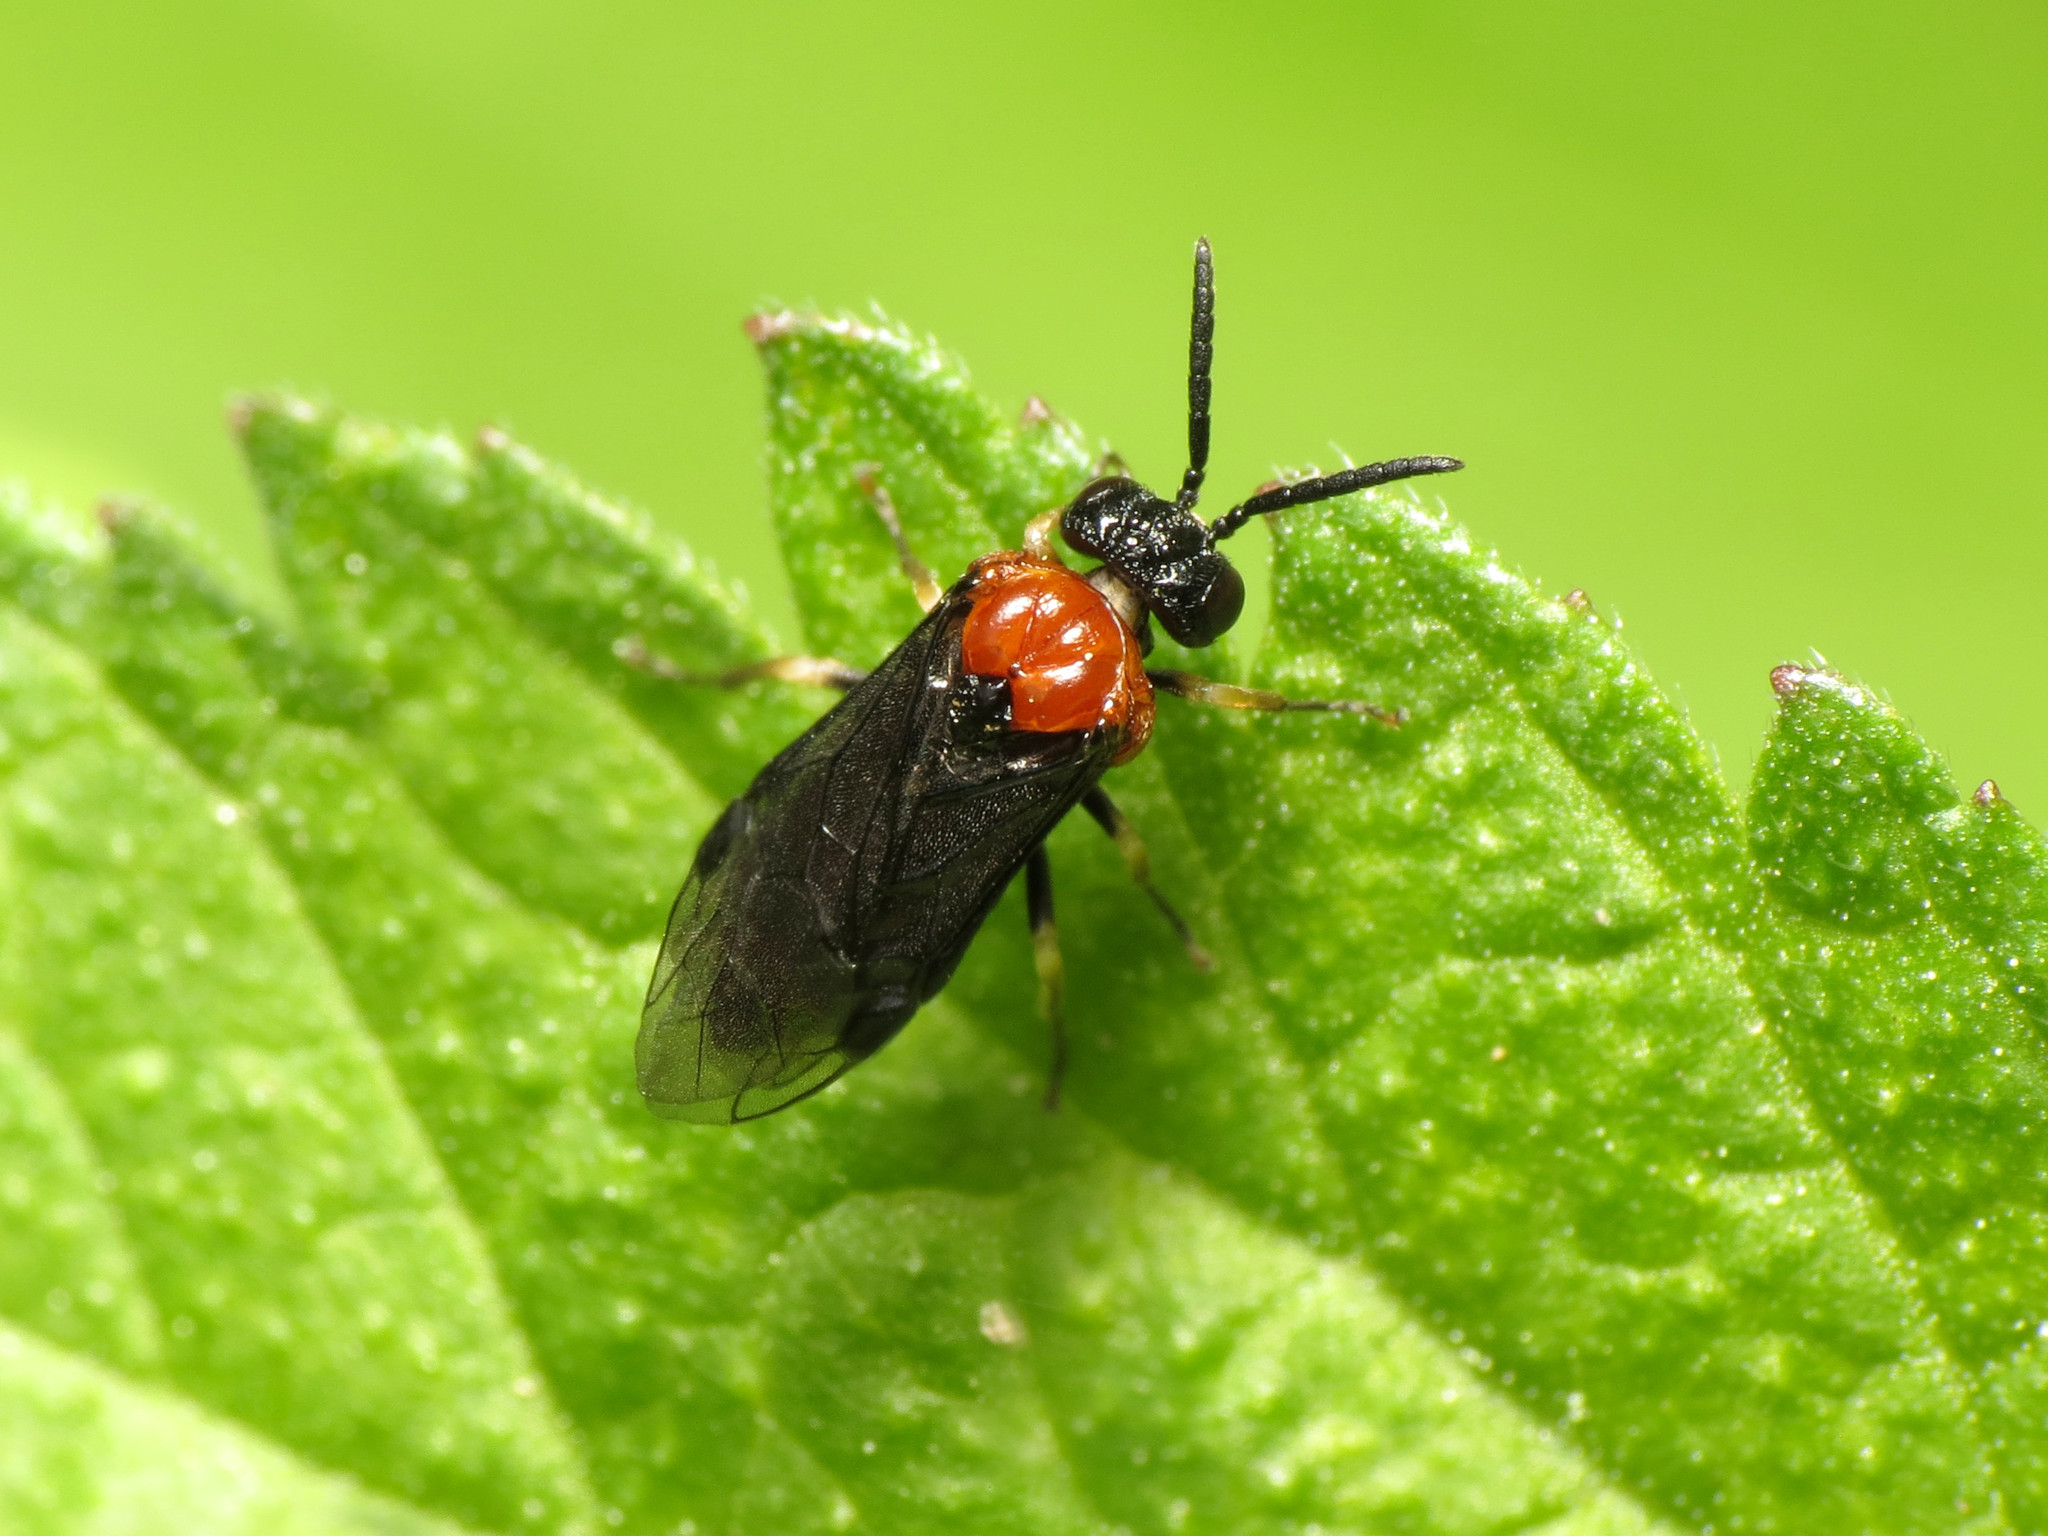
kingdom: Animalia
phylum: Arthropoda
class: Insecta
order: Hymenoptera
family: Tenthredinidae
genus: Eutomostethus
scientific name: Eutomostethus ephippium
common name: Tenthredid wasp
